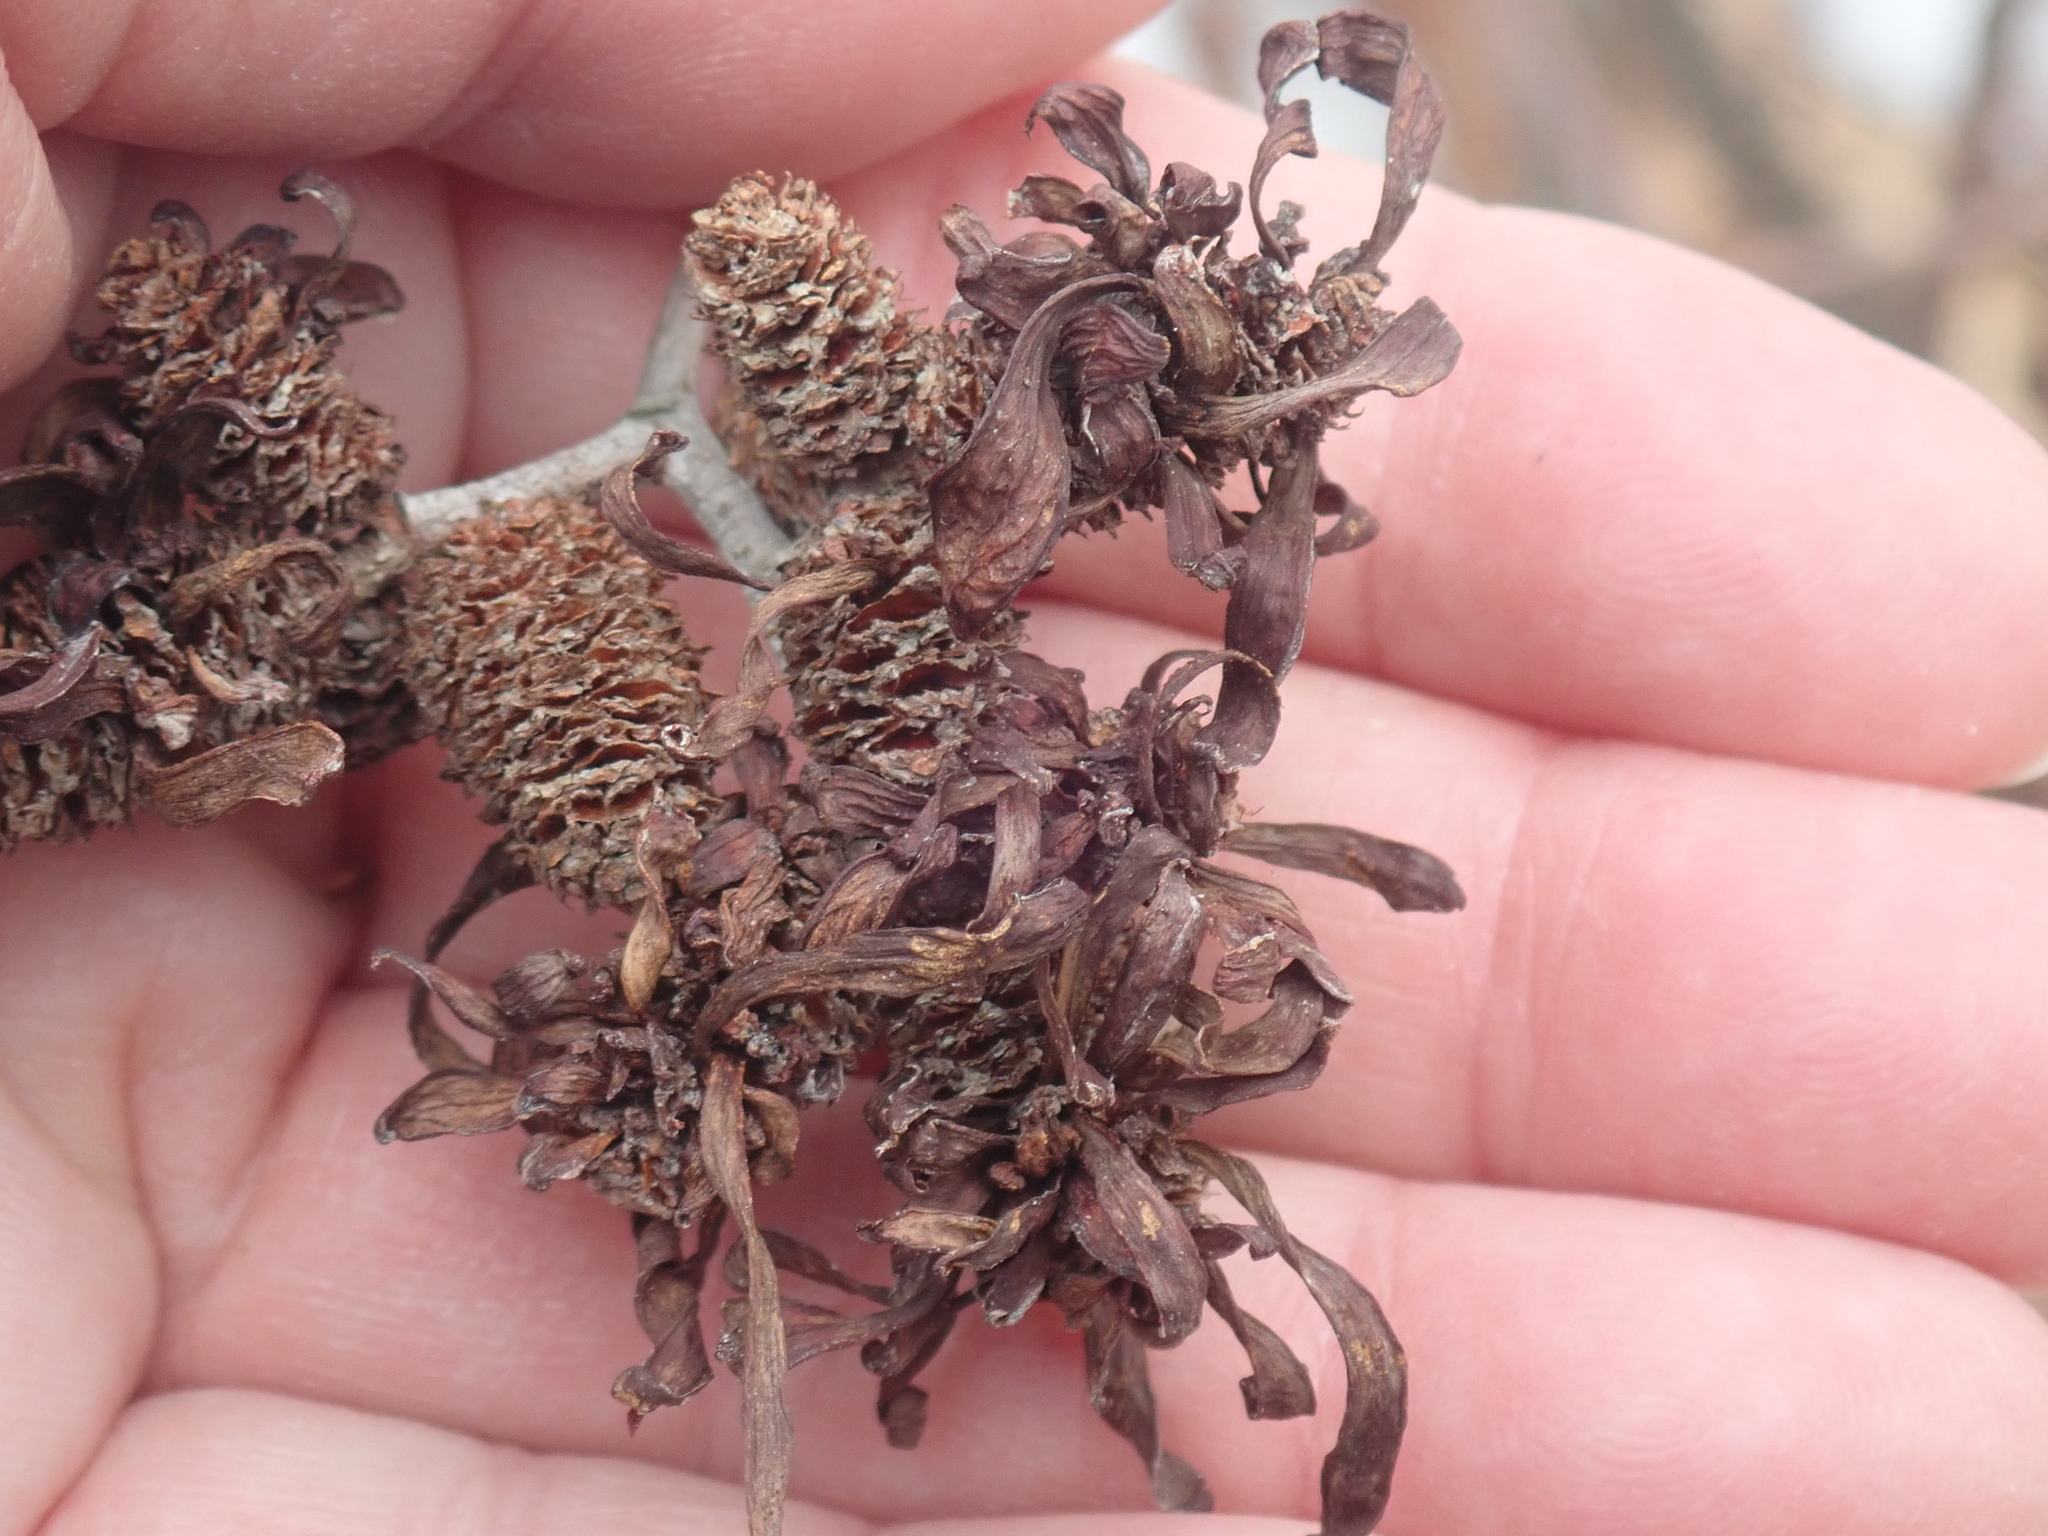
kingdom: Fungi
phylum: Ascomycota
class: Taphrinomycetes
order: Taphrinales
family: Taphrinaceae
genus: Taphrina
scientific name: Taphrina robinsoniana
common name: Eastern american alder tongue gall fungus
